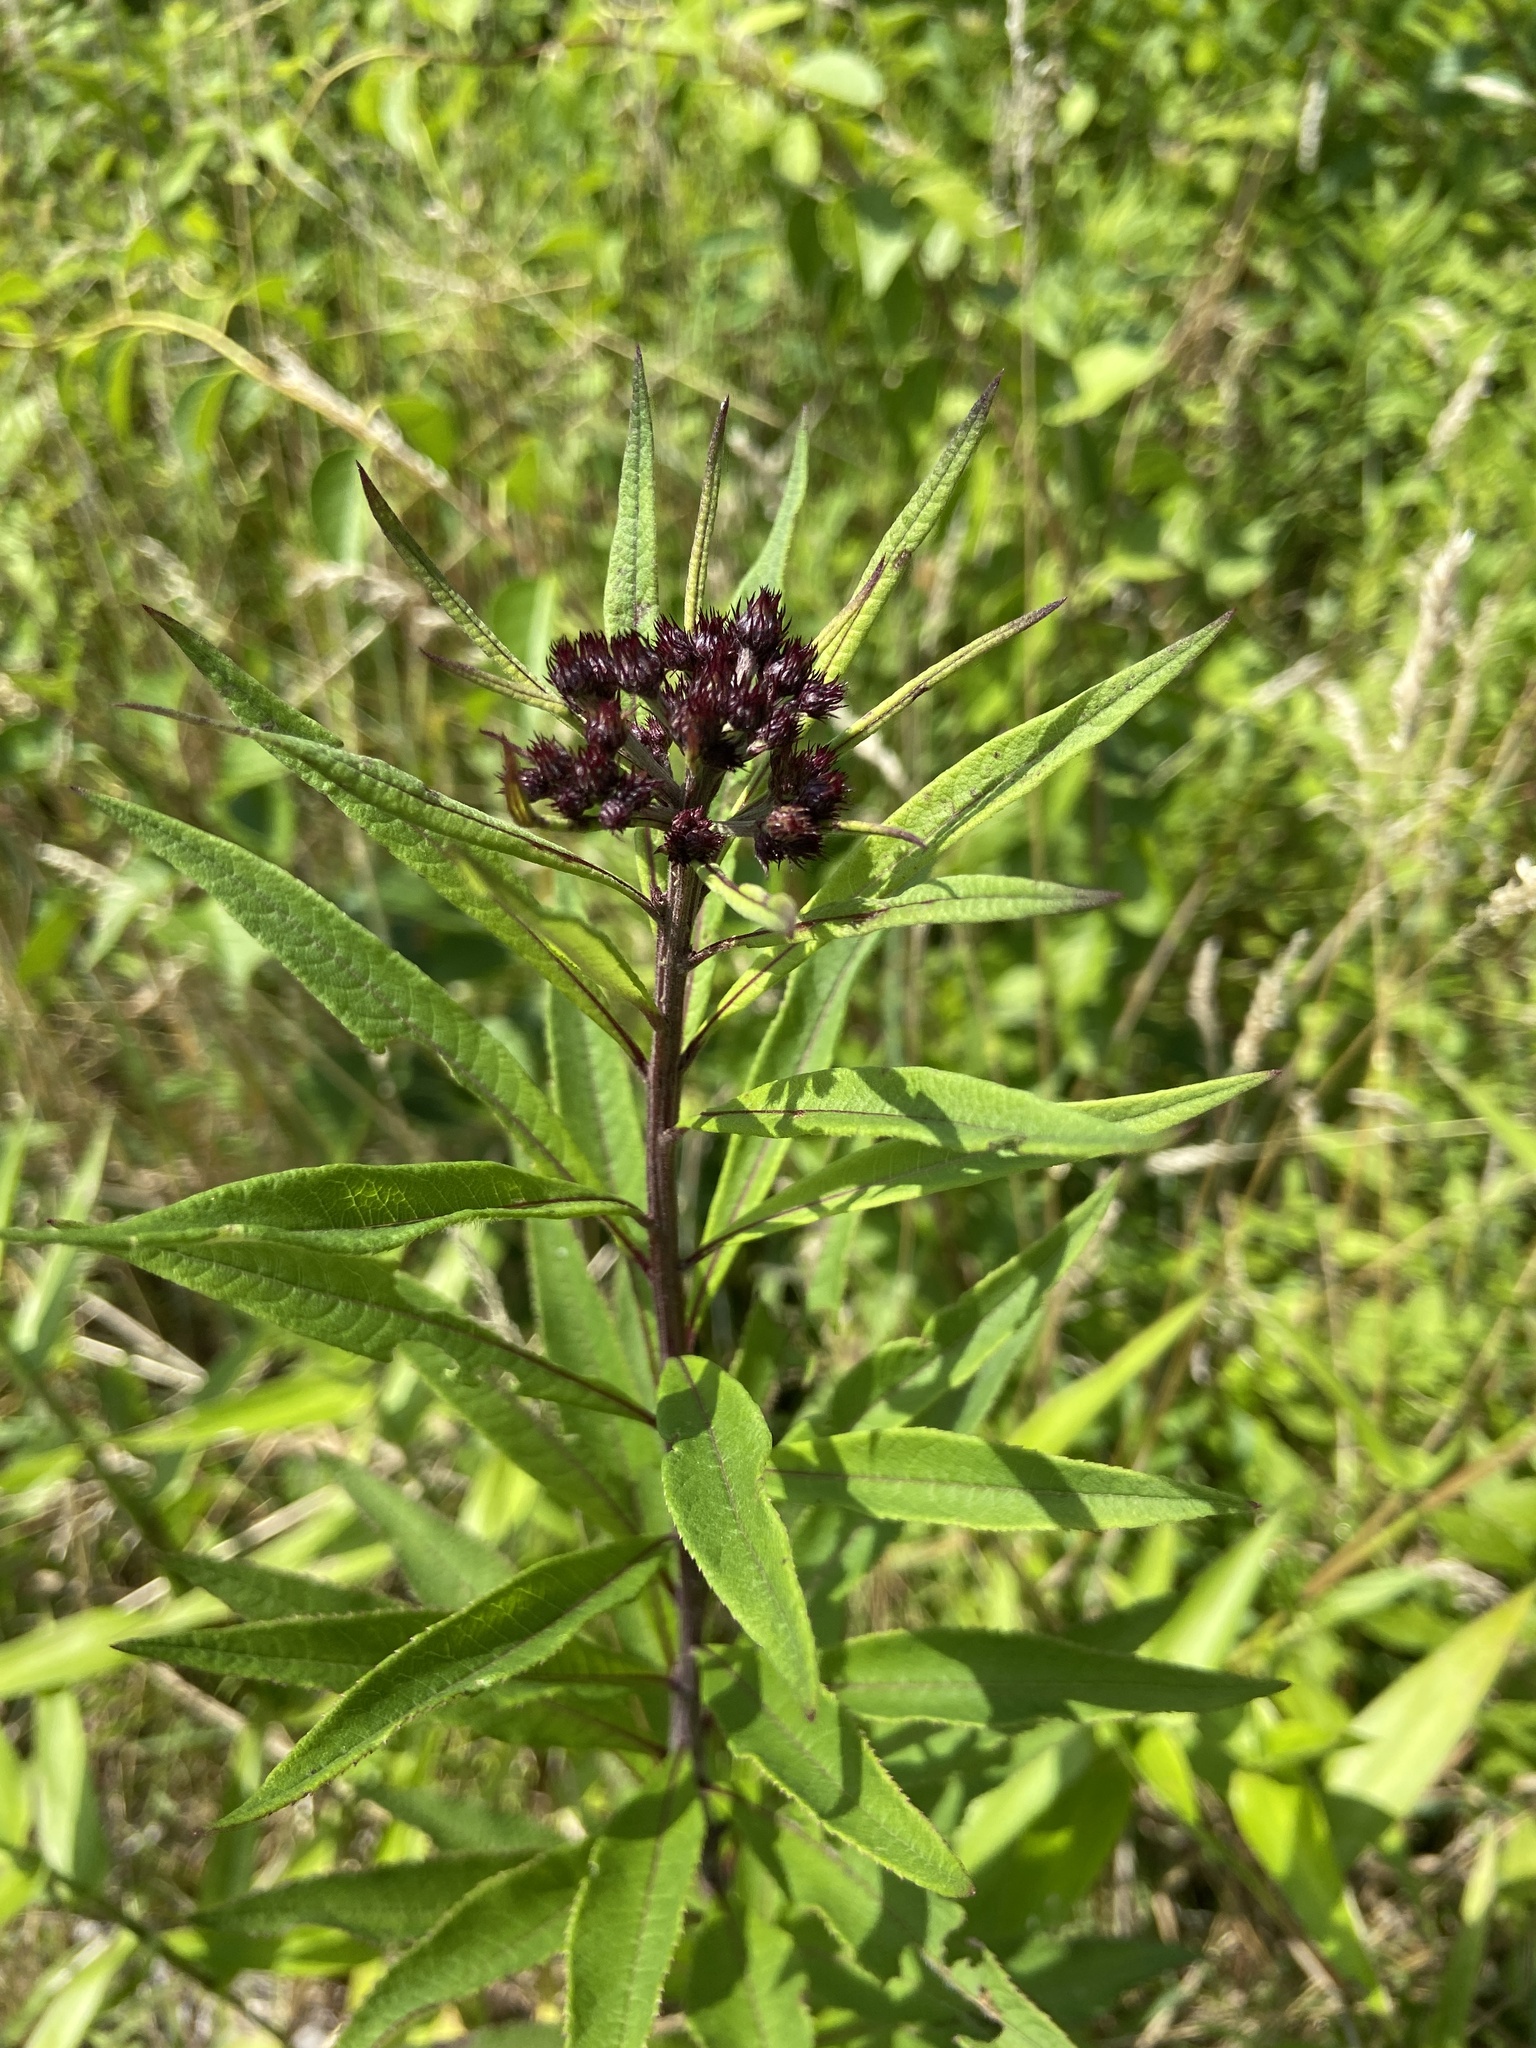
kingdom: Plantae
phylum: Tracheophyta
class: Magnoliopsida
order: Asterales
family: Asteraceae
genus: Vernonia
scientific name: Vernonia noveboracensis
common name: New york ironweed
